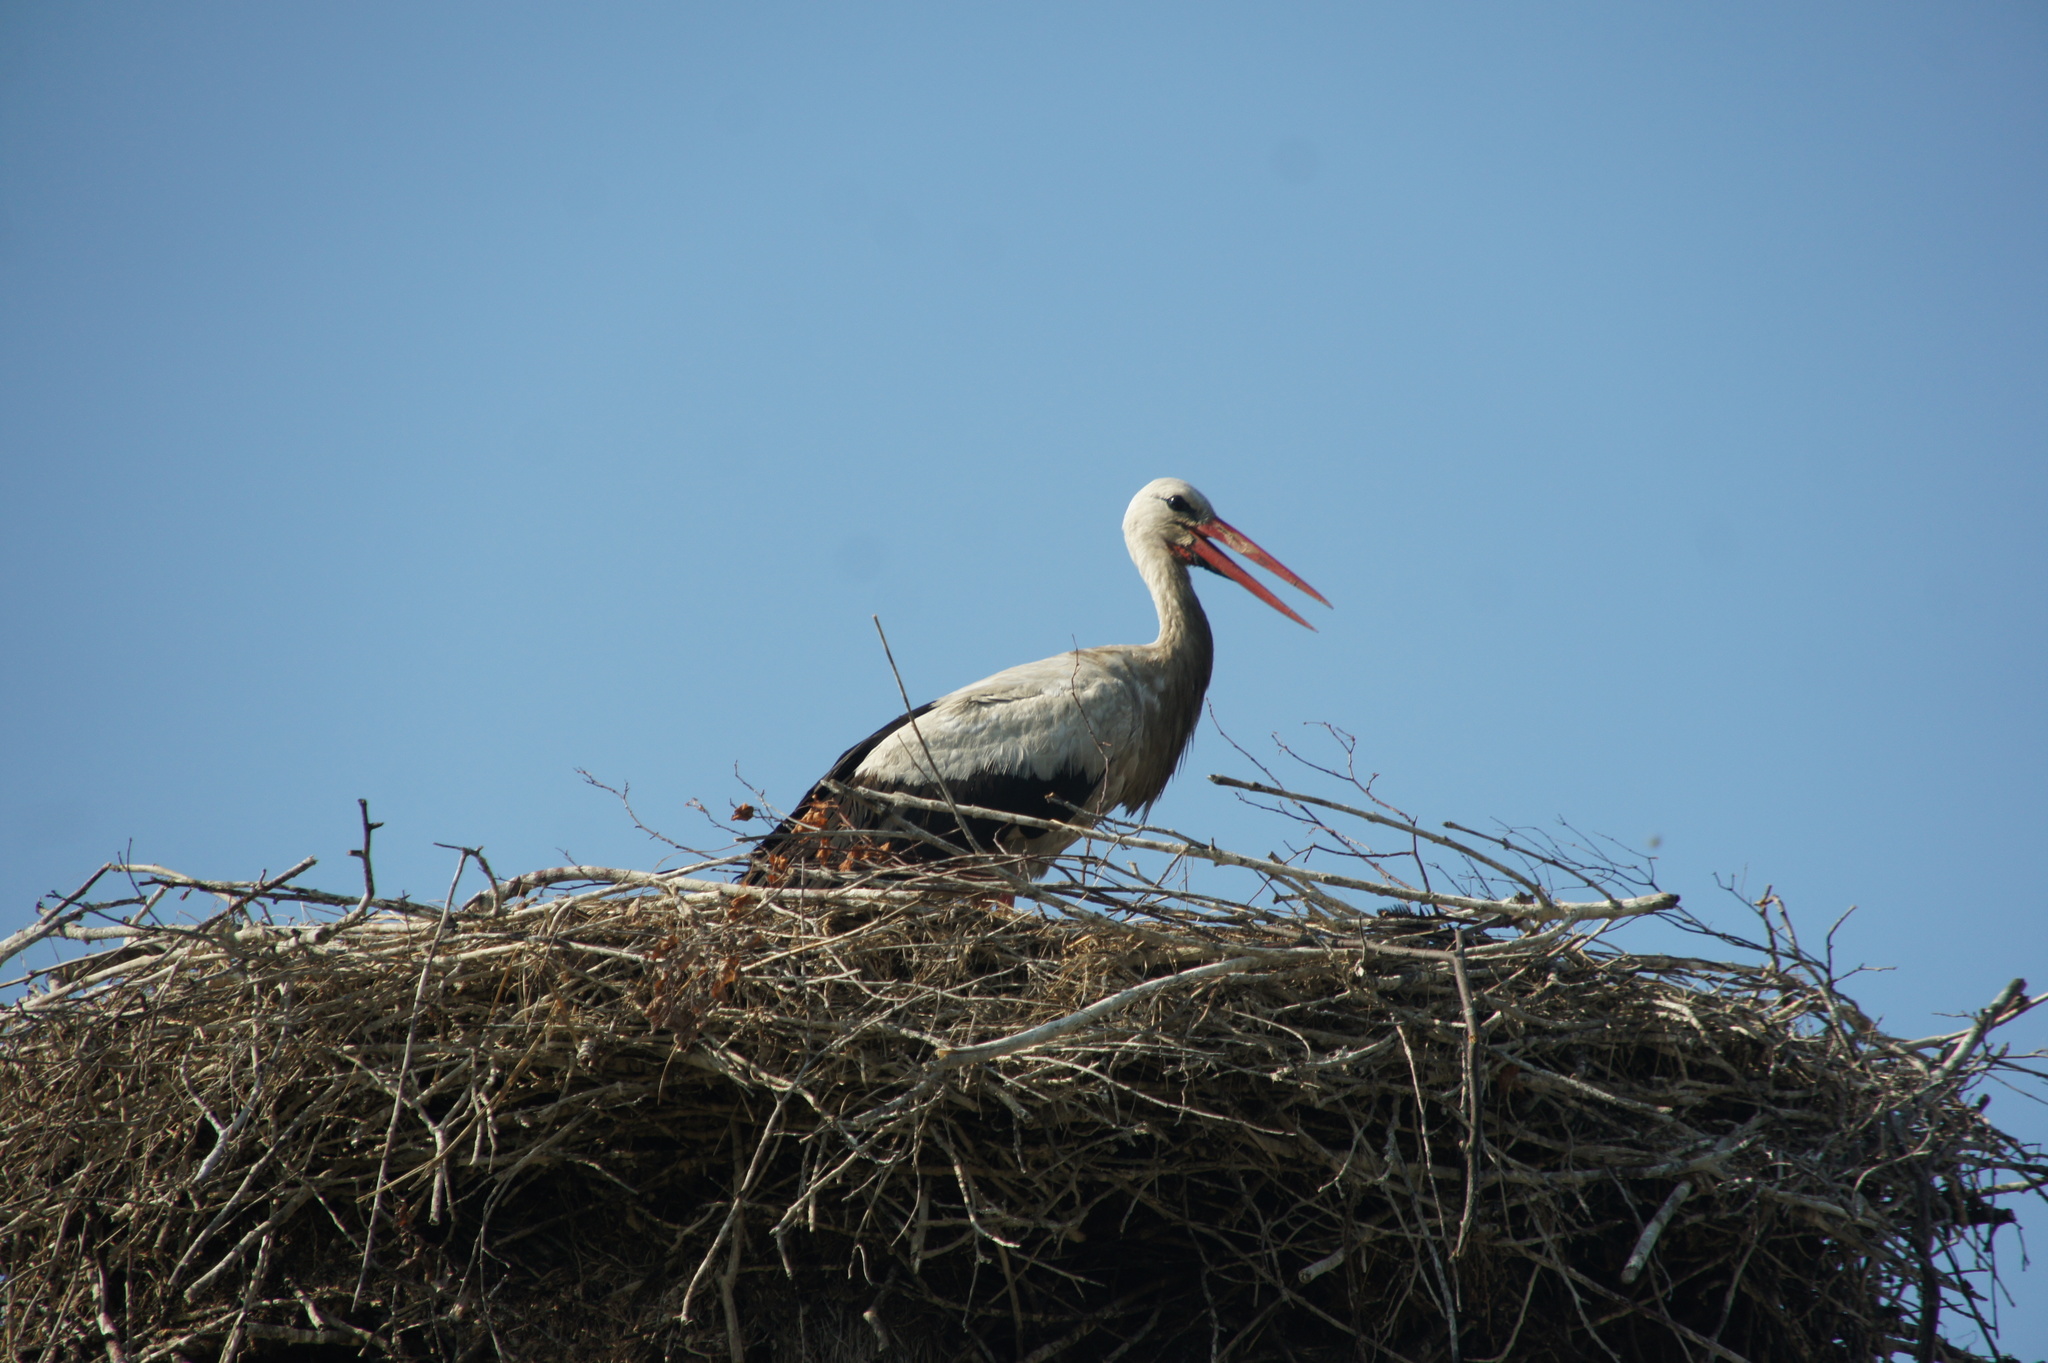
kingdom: Animalia
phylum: Chordata
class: Aves
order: Ciconiiformes
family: Ciconiidae
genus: Ciconia
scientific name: Ciconia ciconia
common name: White stork
